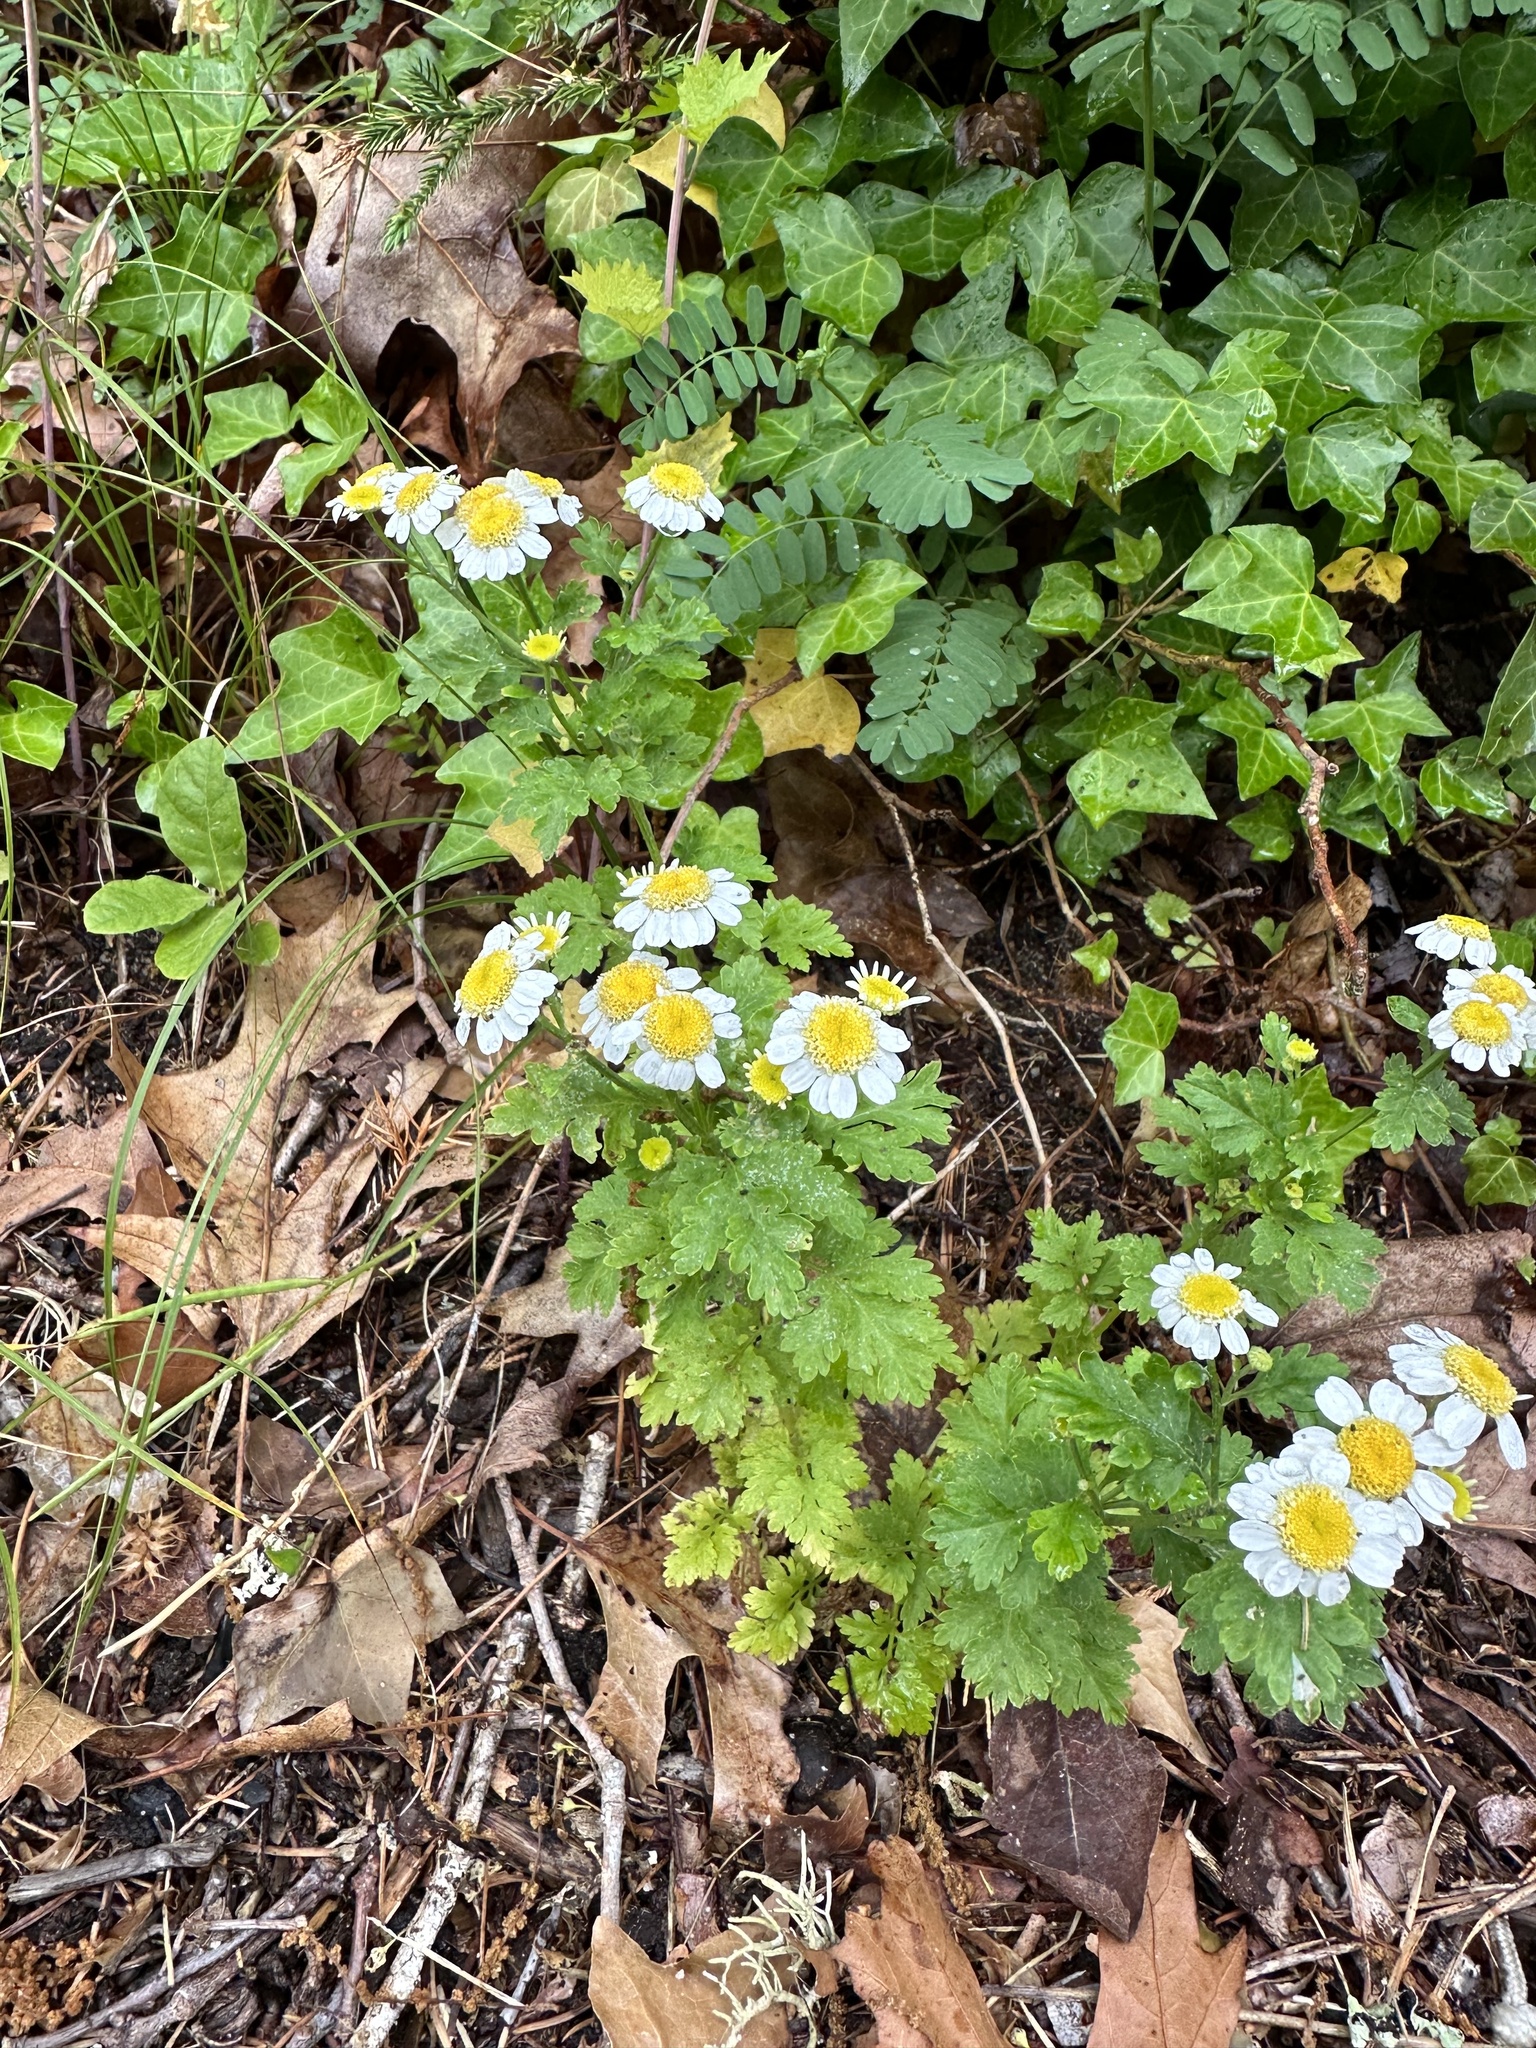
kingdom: Plantae
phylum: Tracheophyta
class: Magnoliopsida
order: Asterales
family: Asteraceae
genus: Tanacetum
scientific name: Tanacetum parthenium
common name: Feverfew
